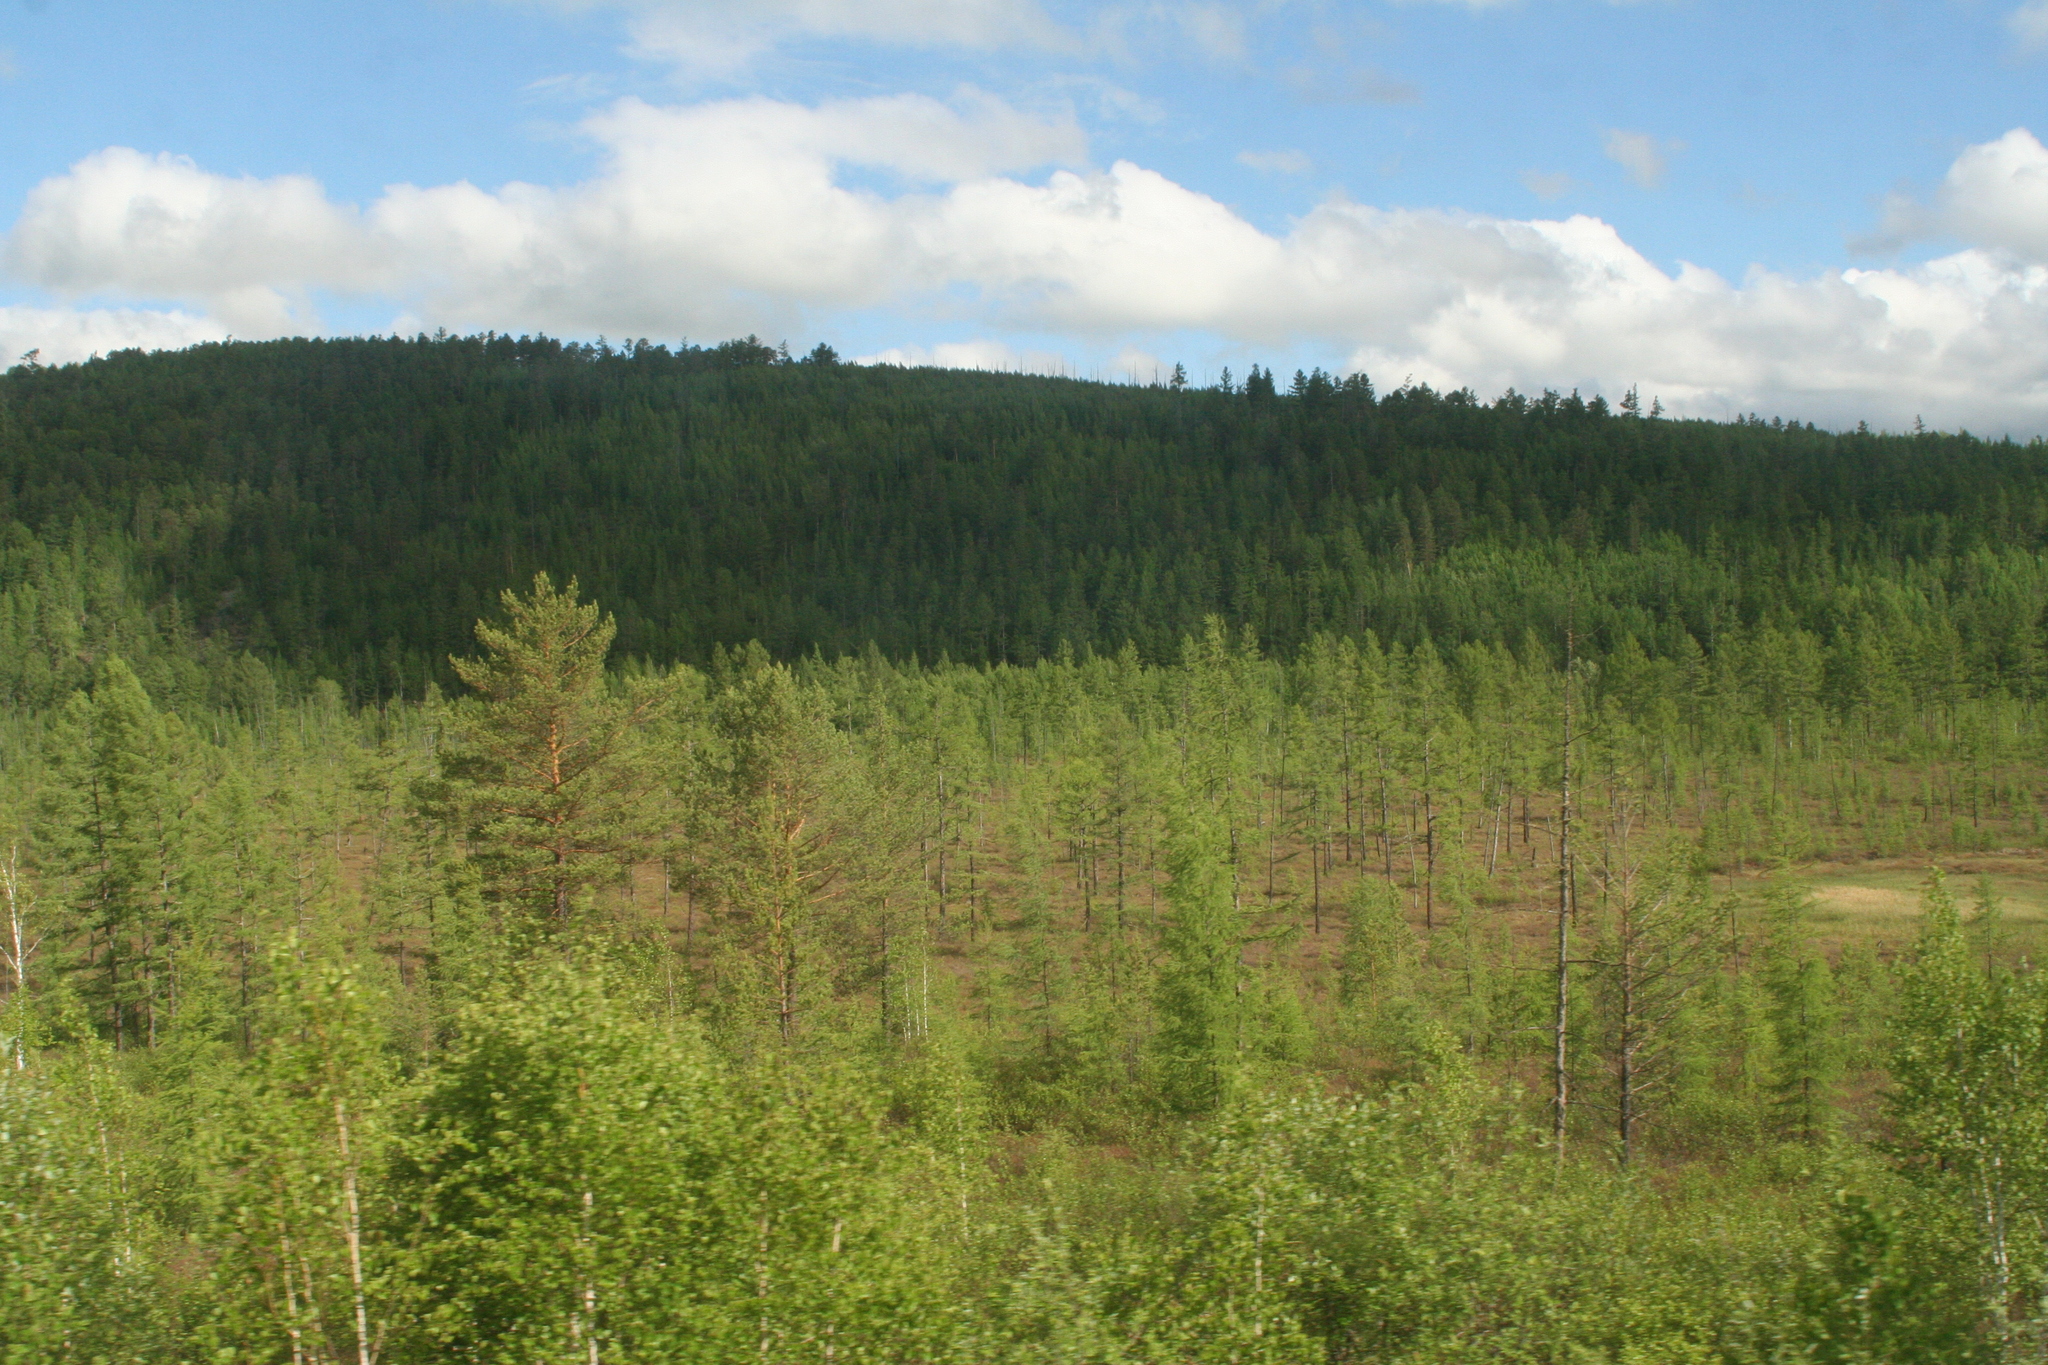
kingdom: Plantae
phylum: Tracheophyta
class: Pinopsida
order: Pinales
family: Pinaceae
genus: Pinus
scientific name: Pinus sylvestris
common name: Scots pine
